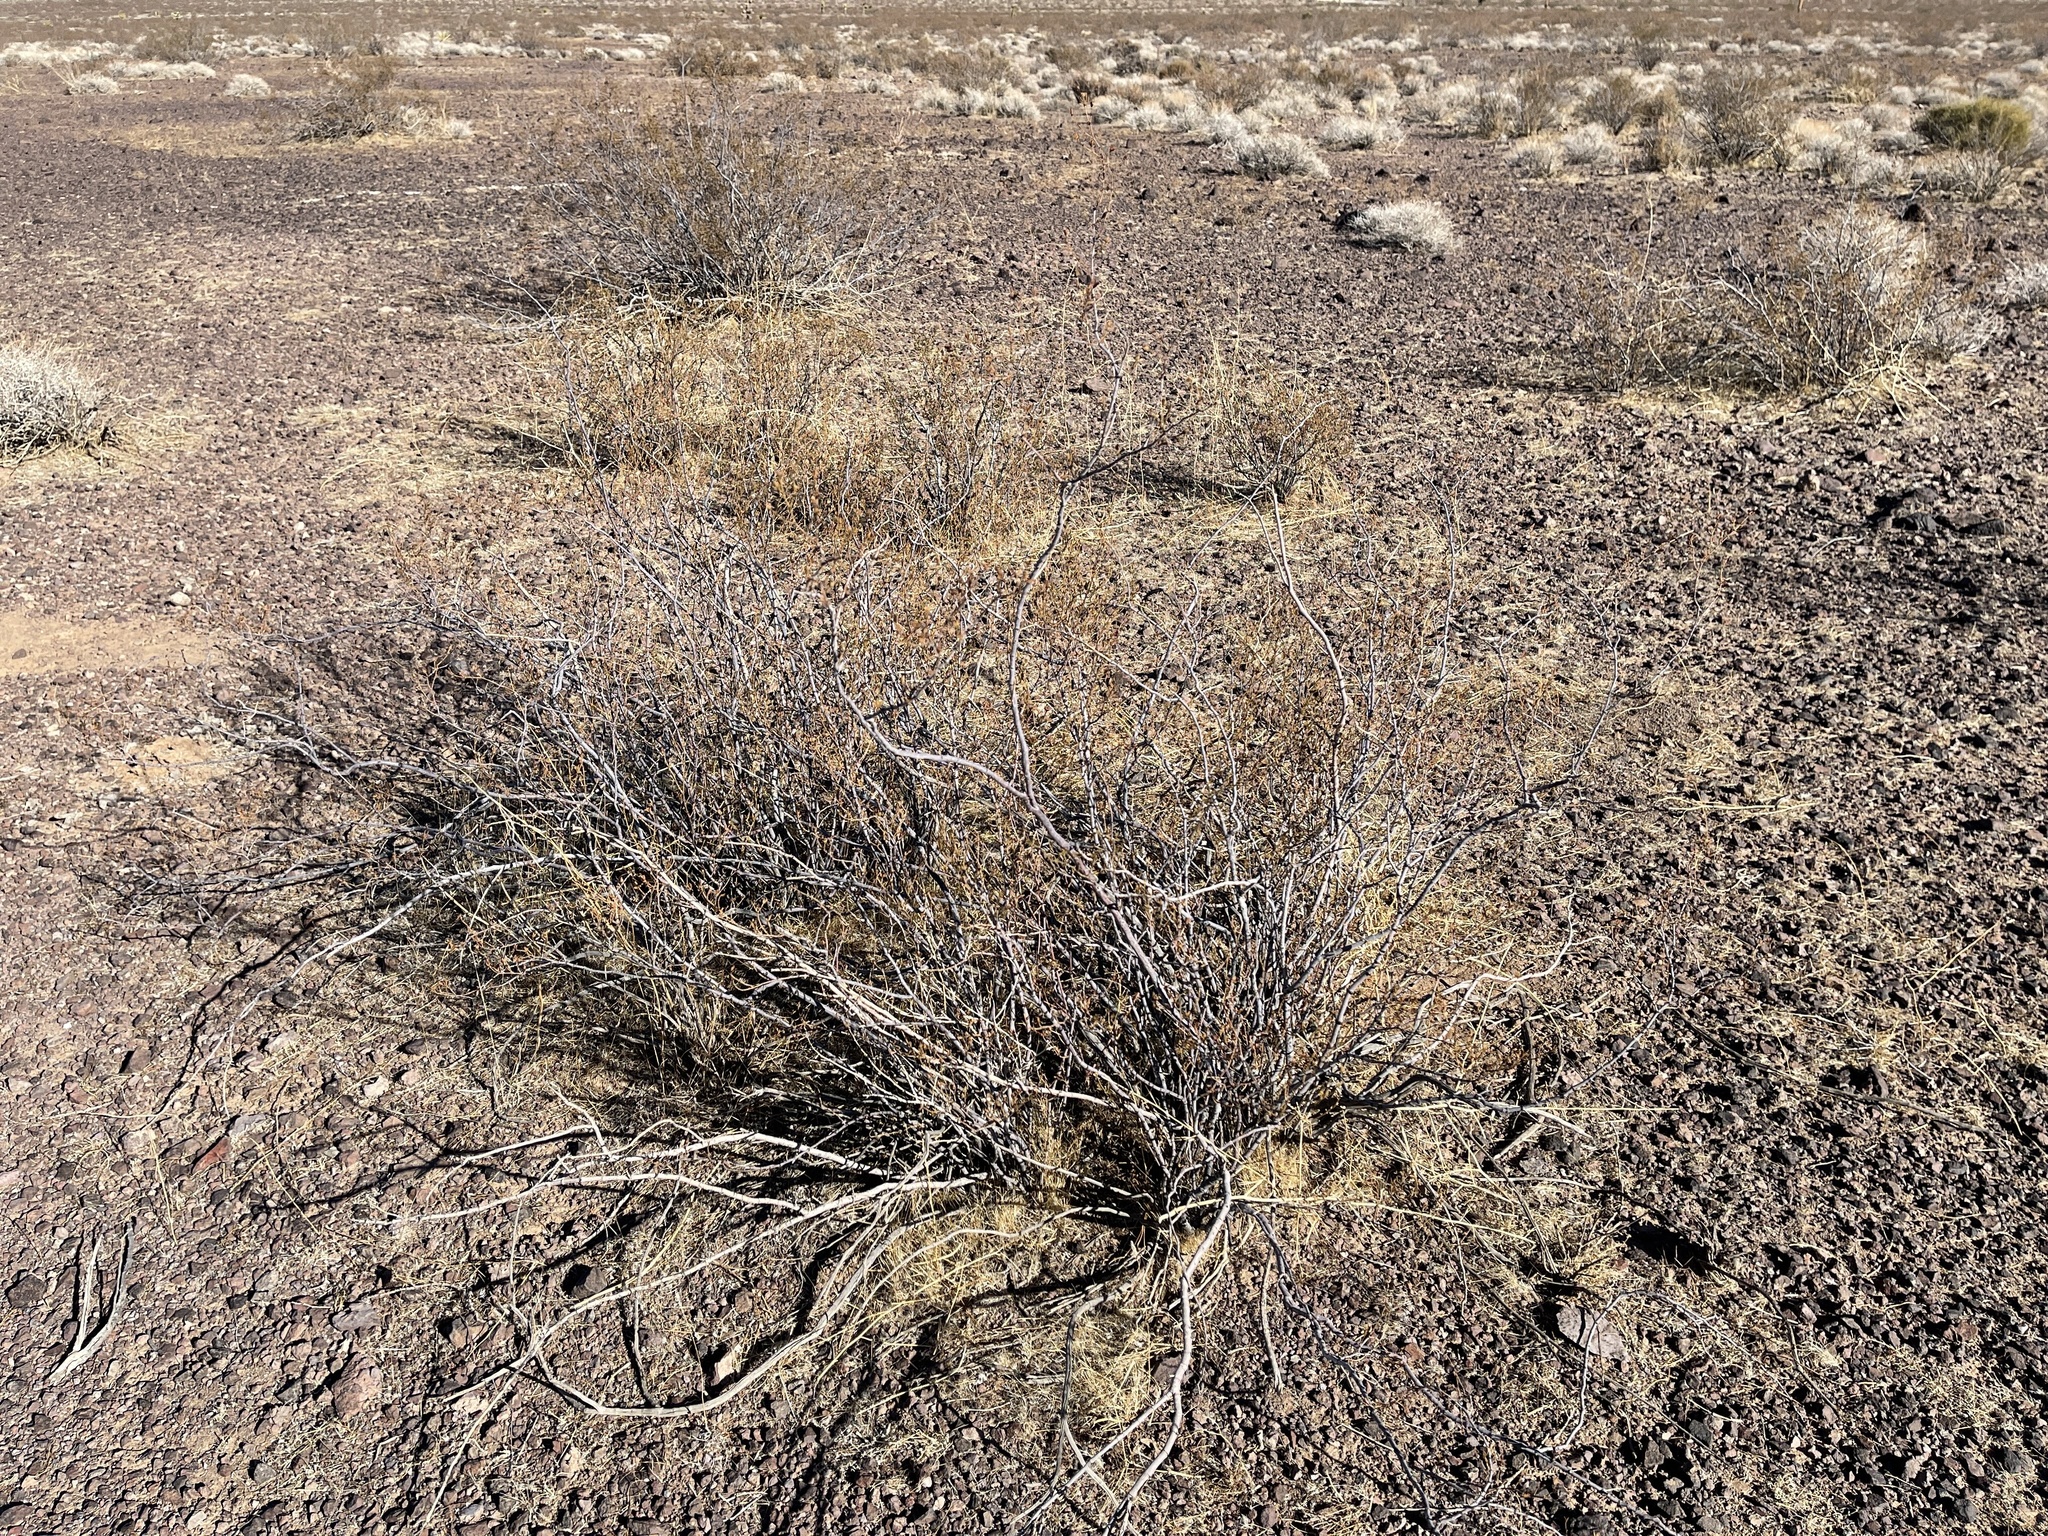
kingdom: Plantae
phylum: Tracheophyta
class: Magnoliopsida
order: Zygophyllales
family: Zygophyllaceae
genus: Larrea
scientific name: Larrea tridentata
